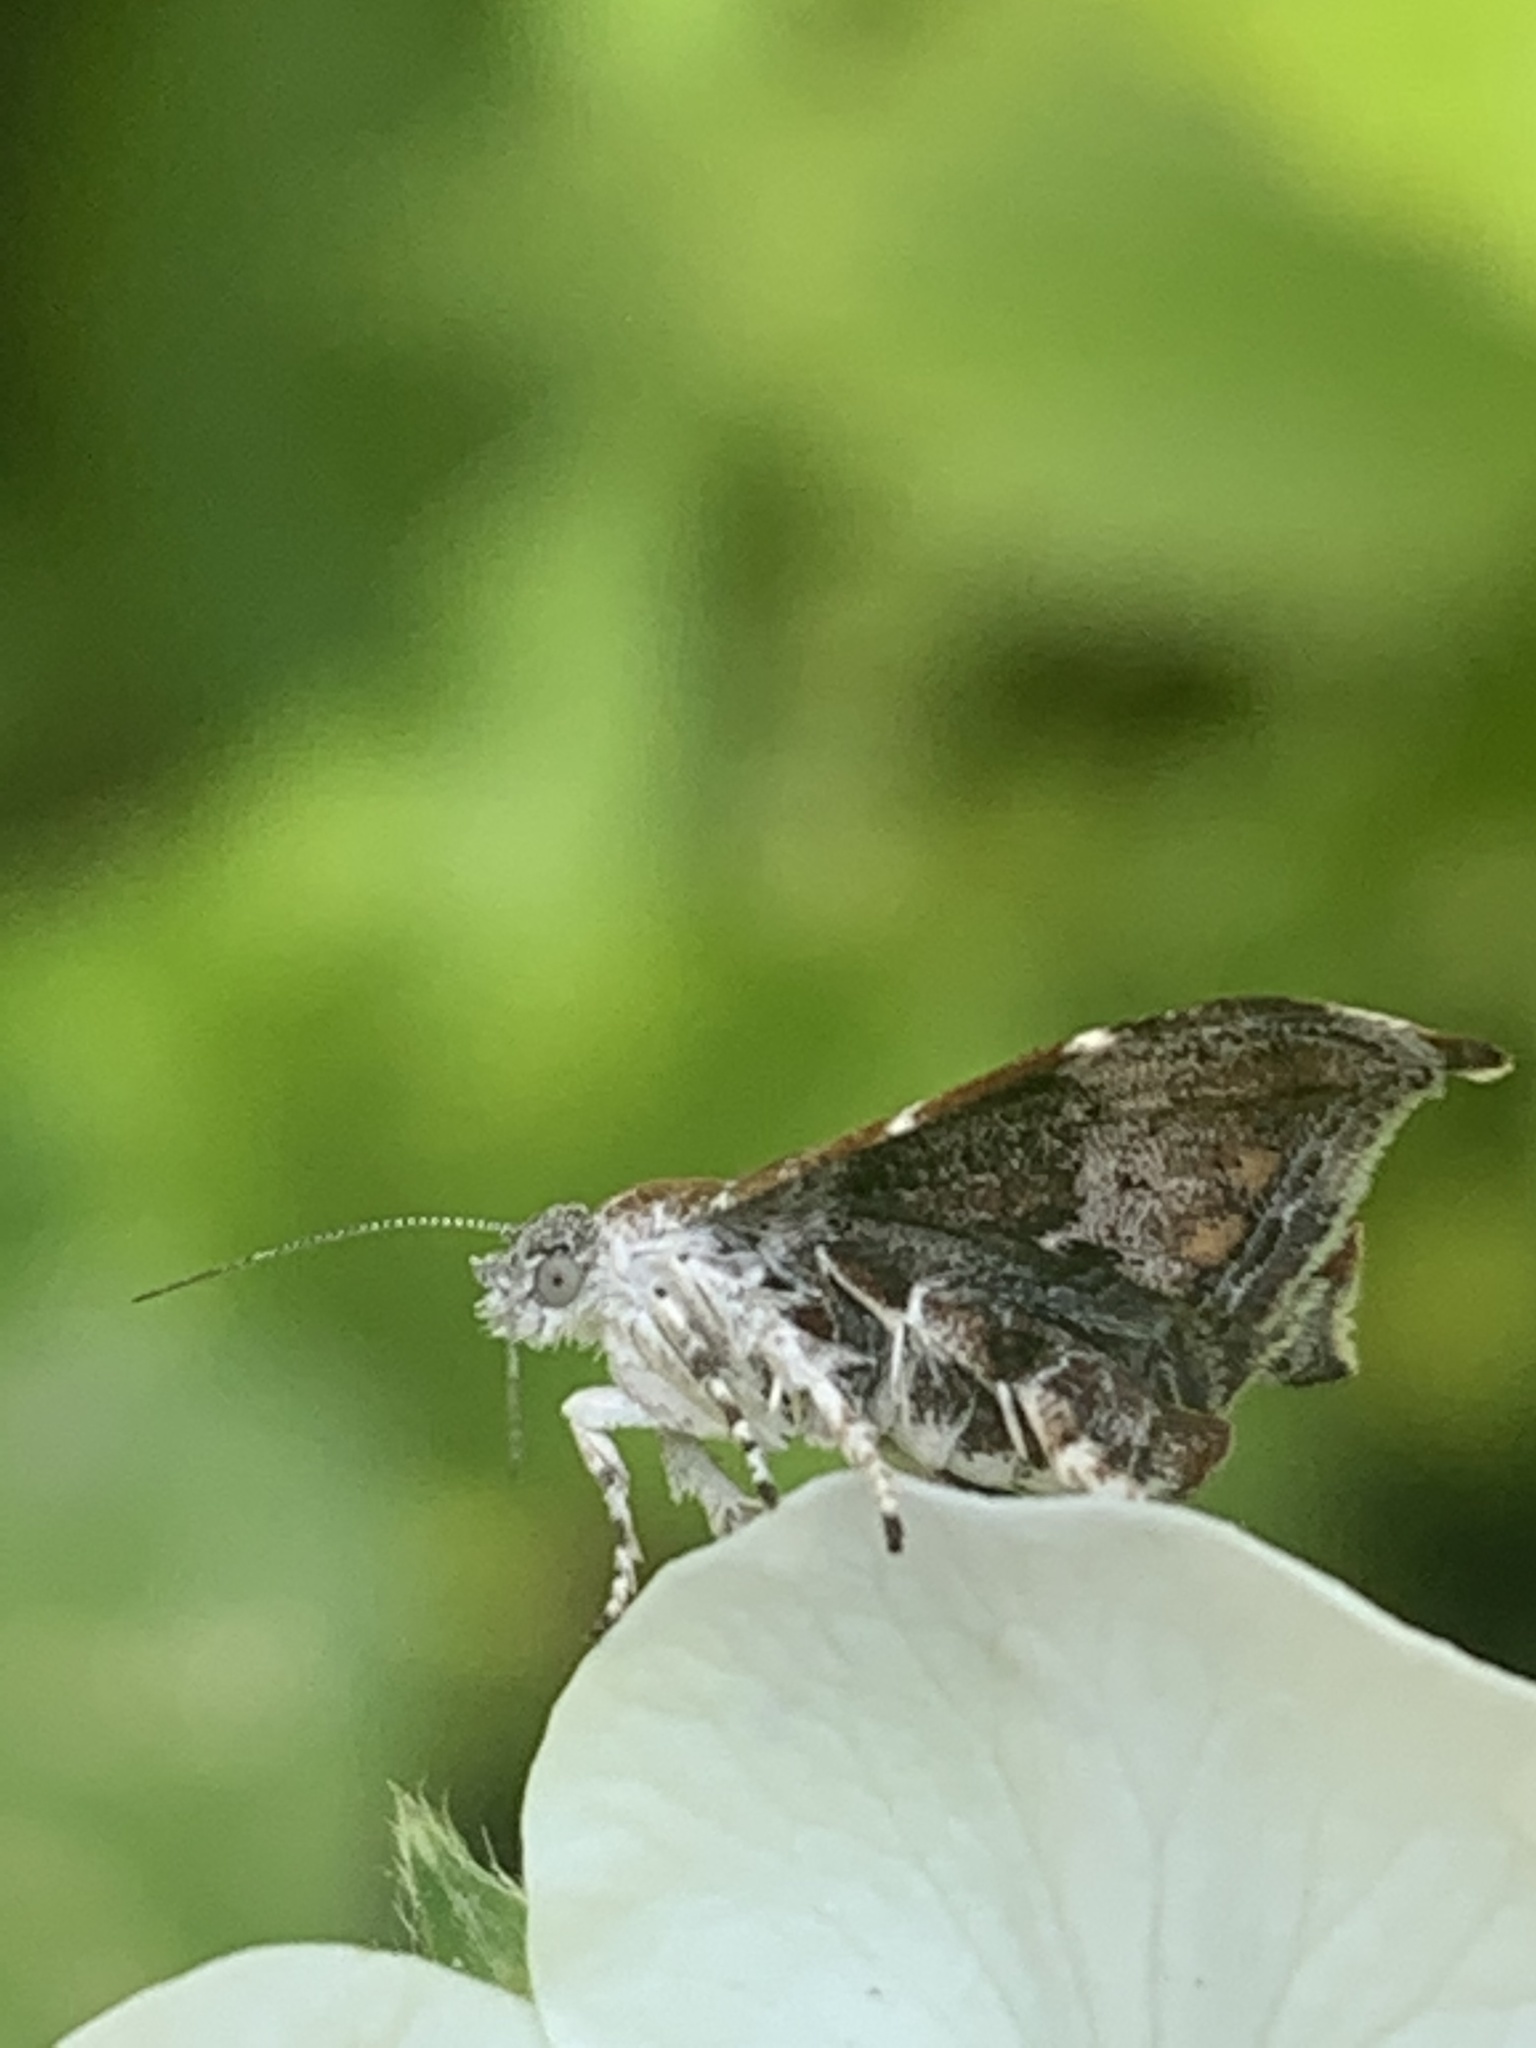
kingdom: Animalia
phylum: Arthropoda
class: Insecta
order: Lepidoptera
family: Choreutidae
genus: Anthophila
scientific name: Anthophila nemorana
